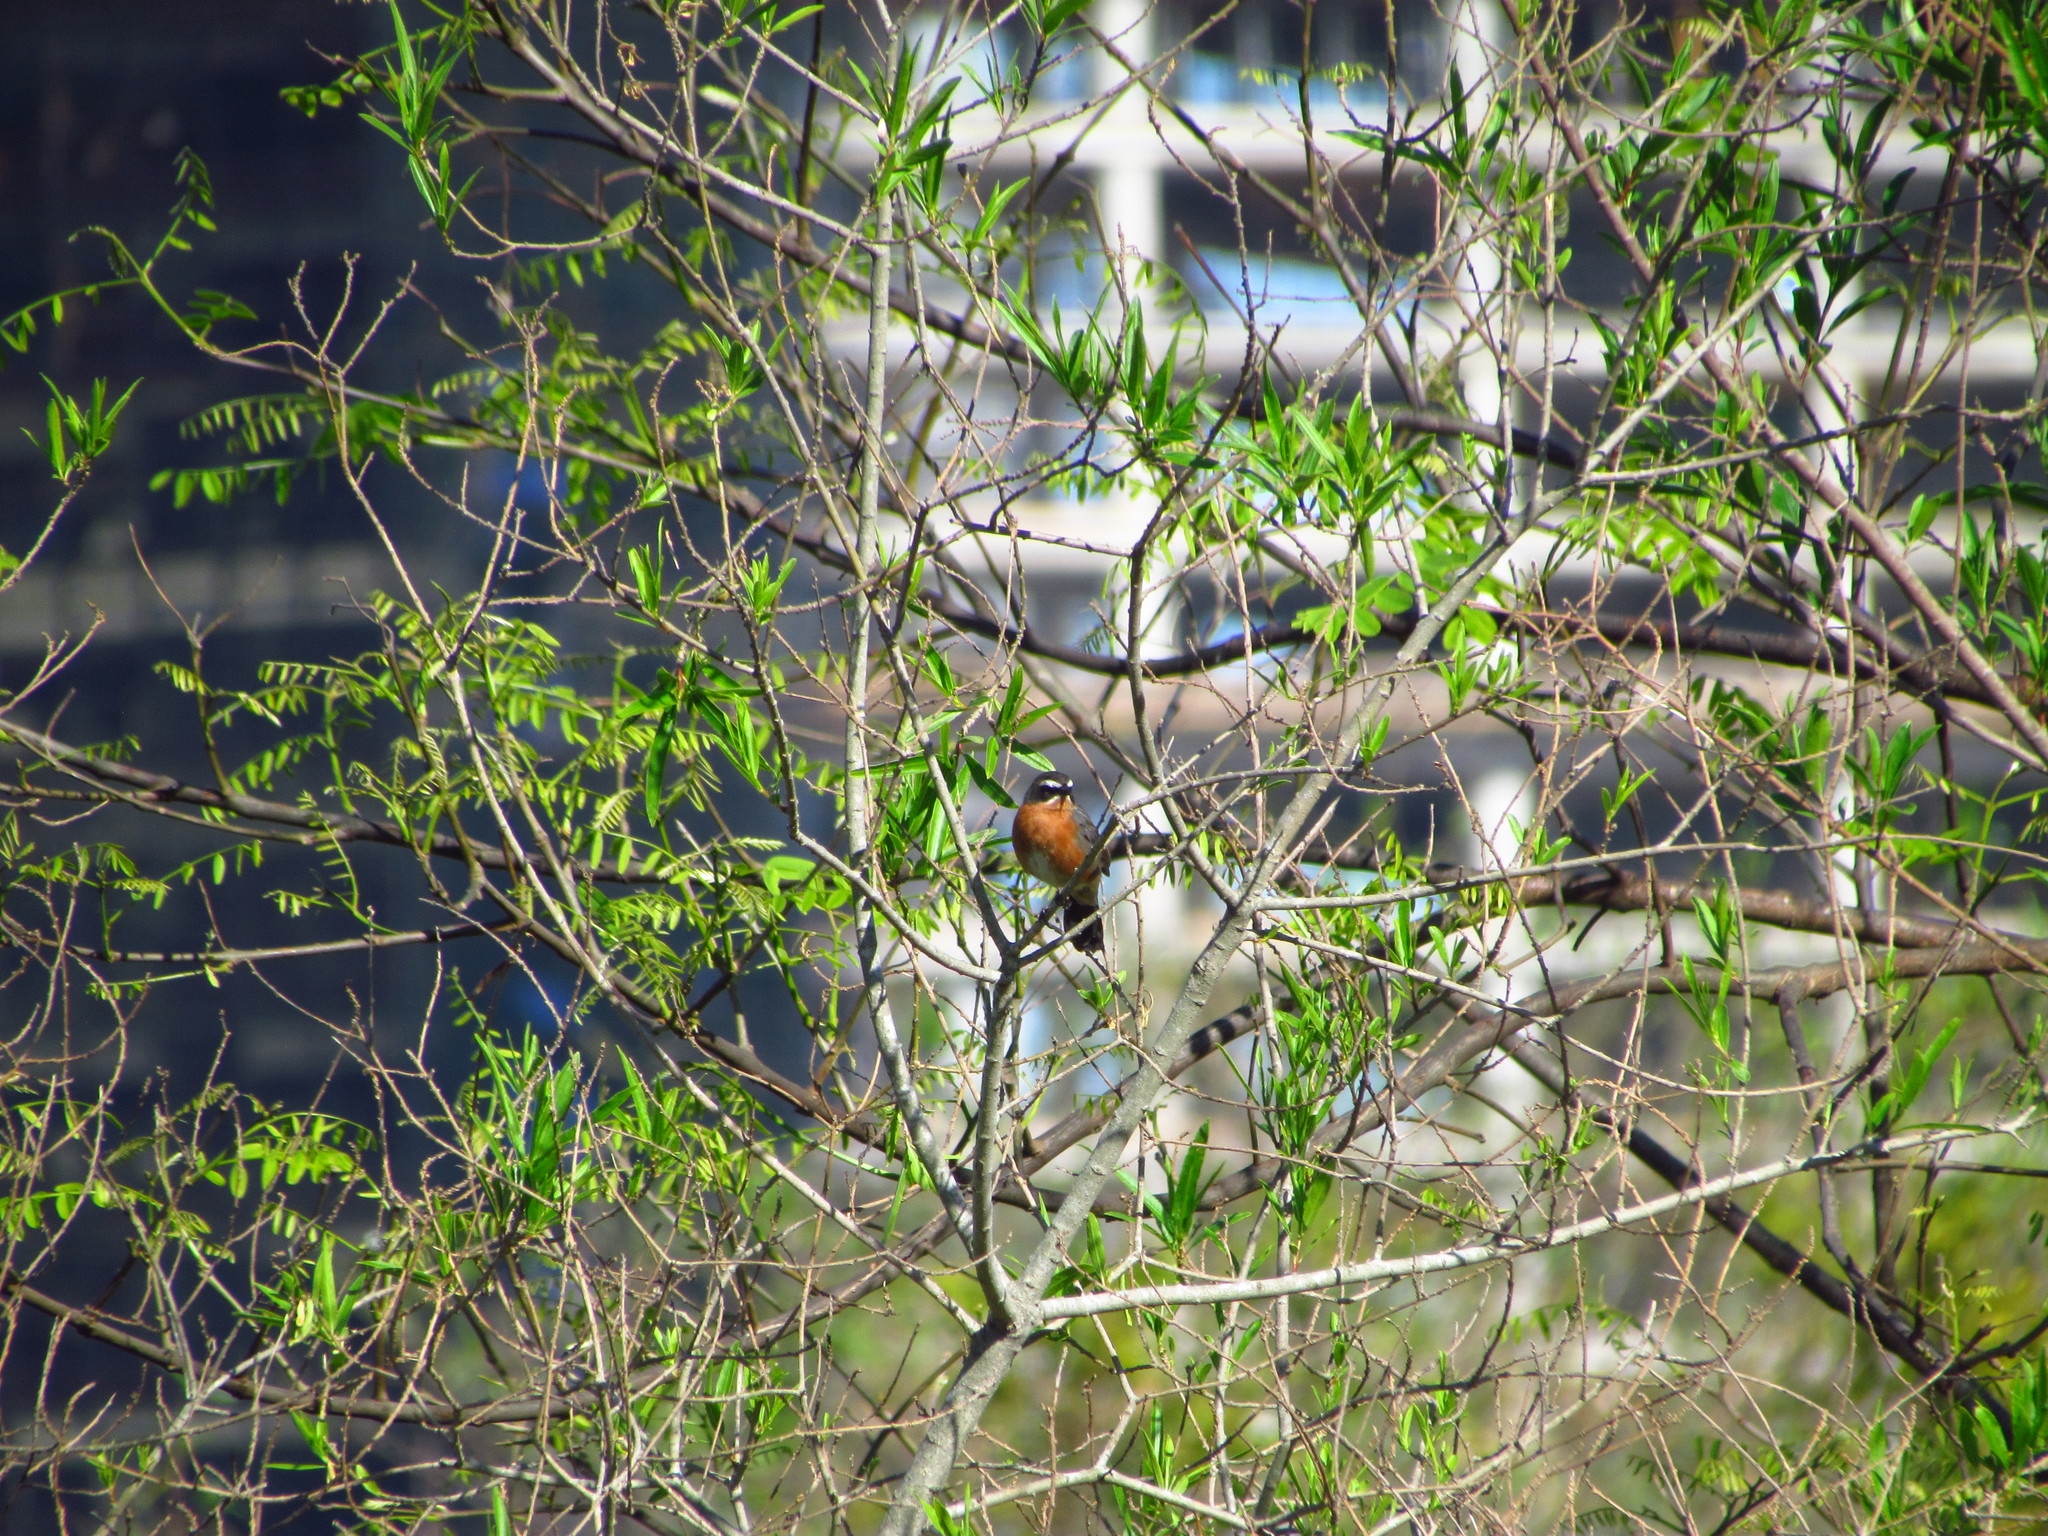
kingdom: Animalia
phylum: Chordata
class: Aves
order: Passeriformes
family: Thraupidae
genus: Poospiza
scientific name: Poospiza nigrorufa
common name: Black-and-rufous warbling finch
